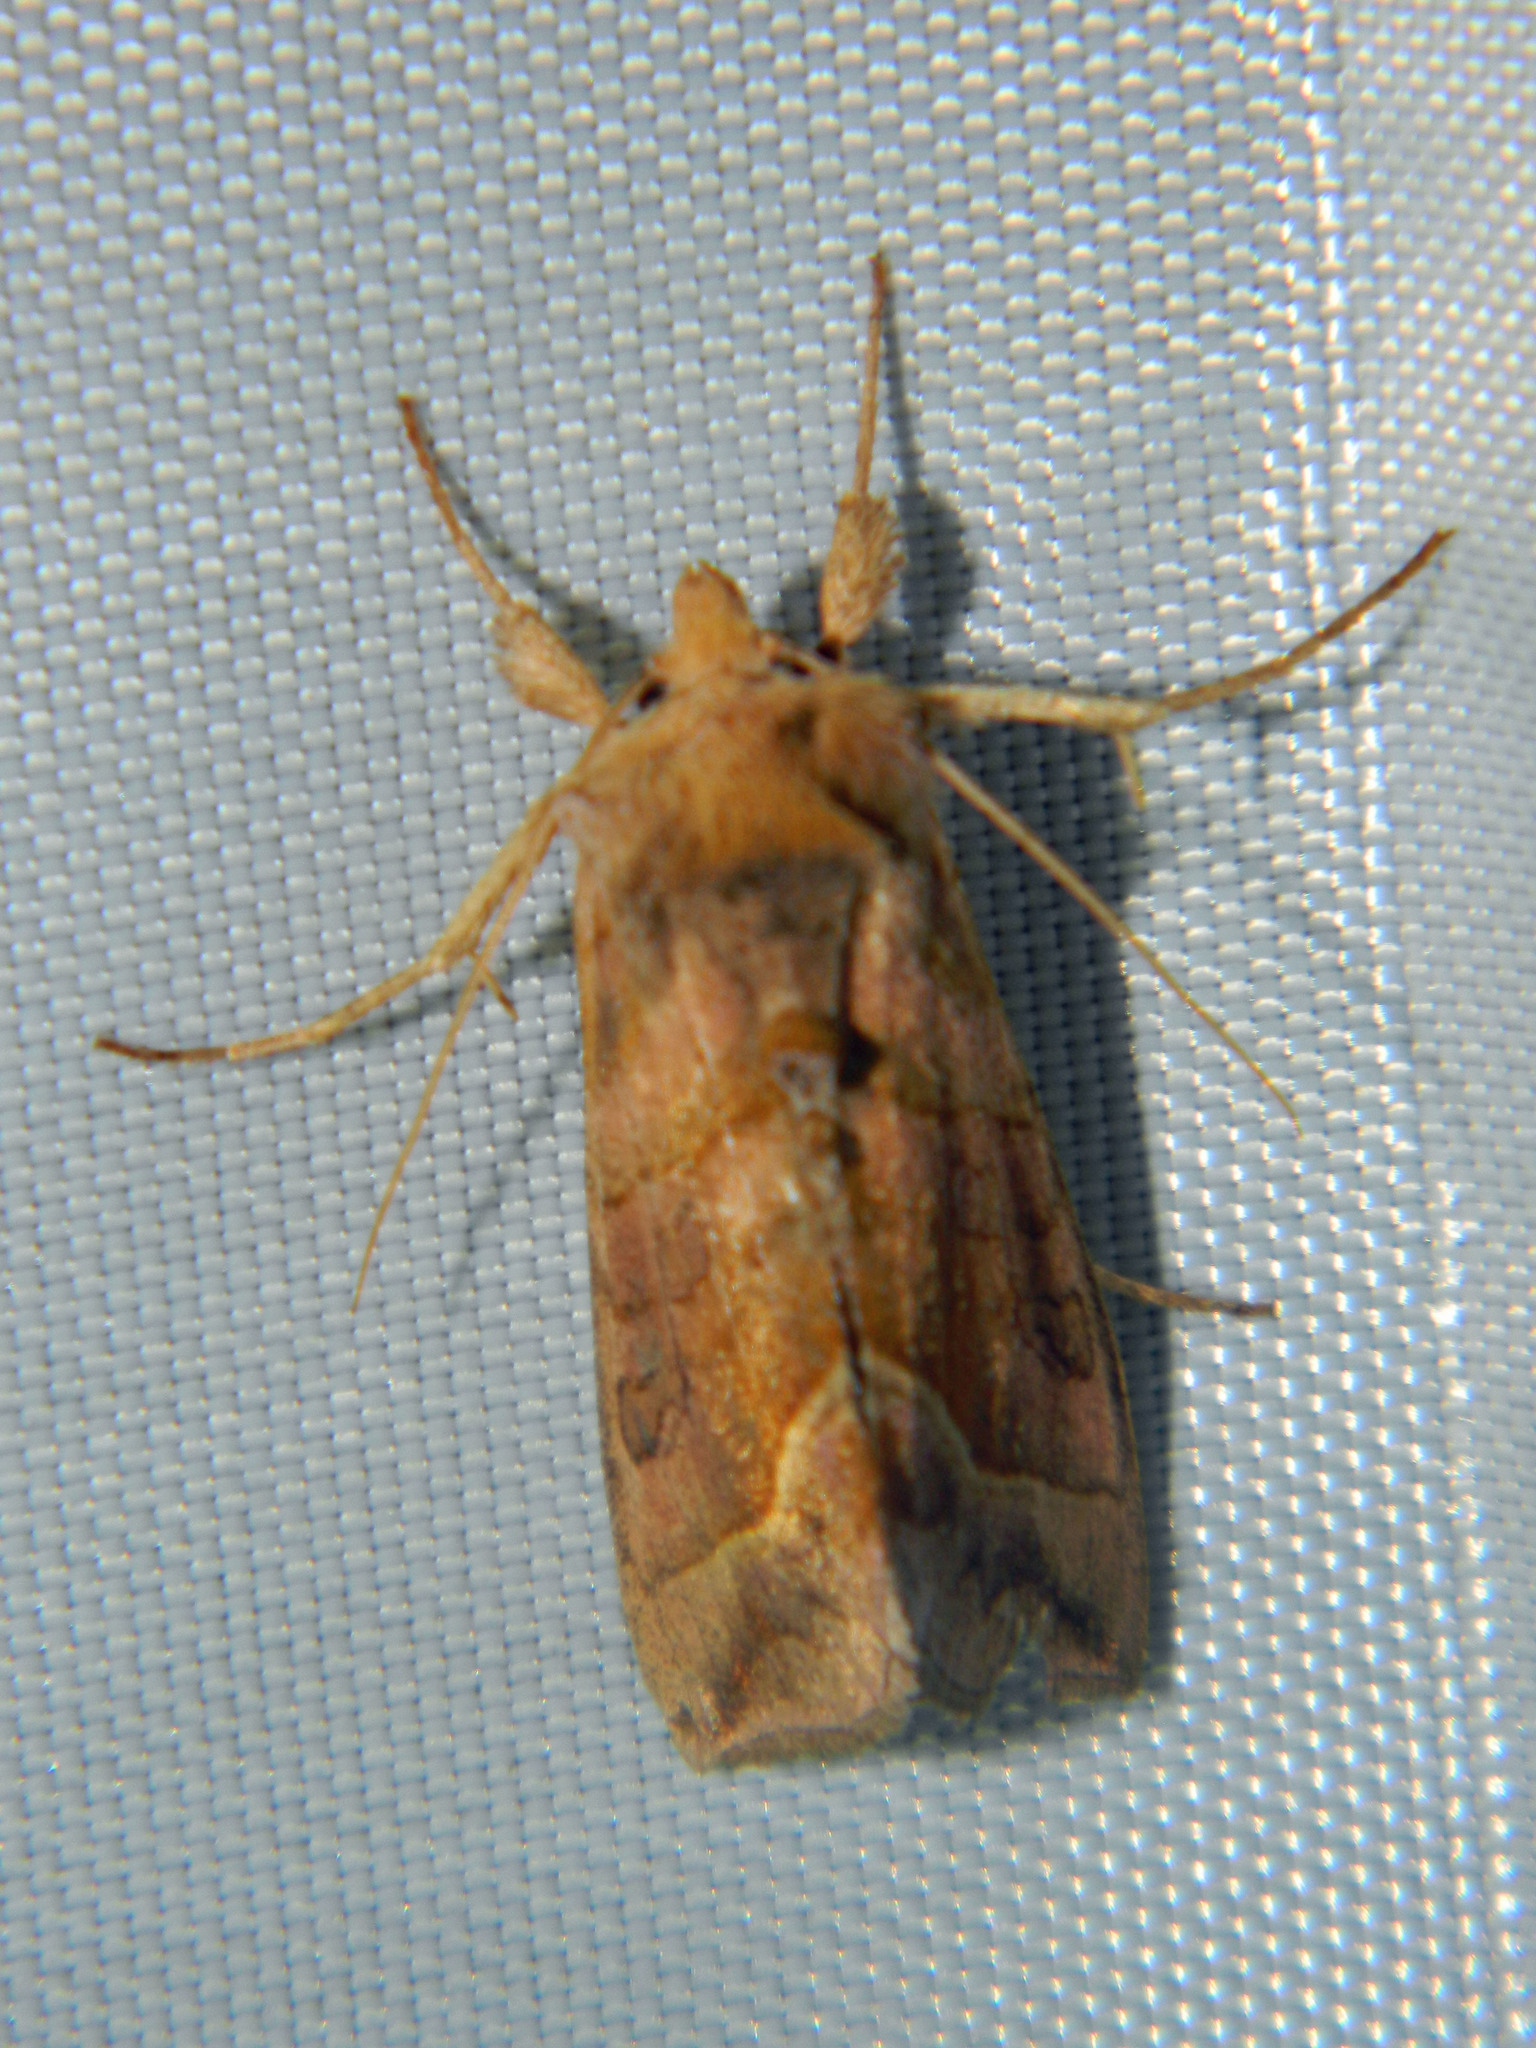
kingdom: Animalia
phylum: Arthropoda
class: Insecta
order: Lepidoptera
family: Noctuidae
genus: Diachrysia
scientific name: Diachrysia aereoides
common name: Dark-spotted looper moth
